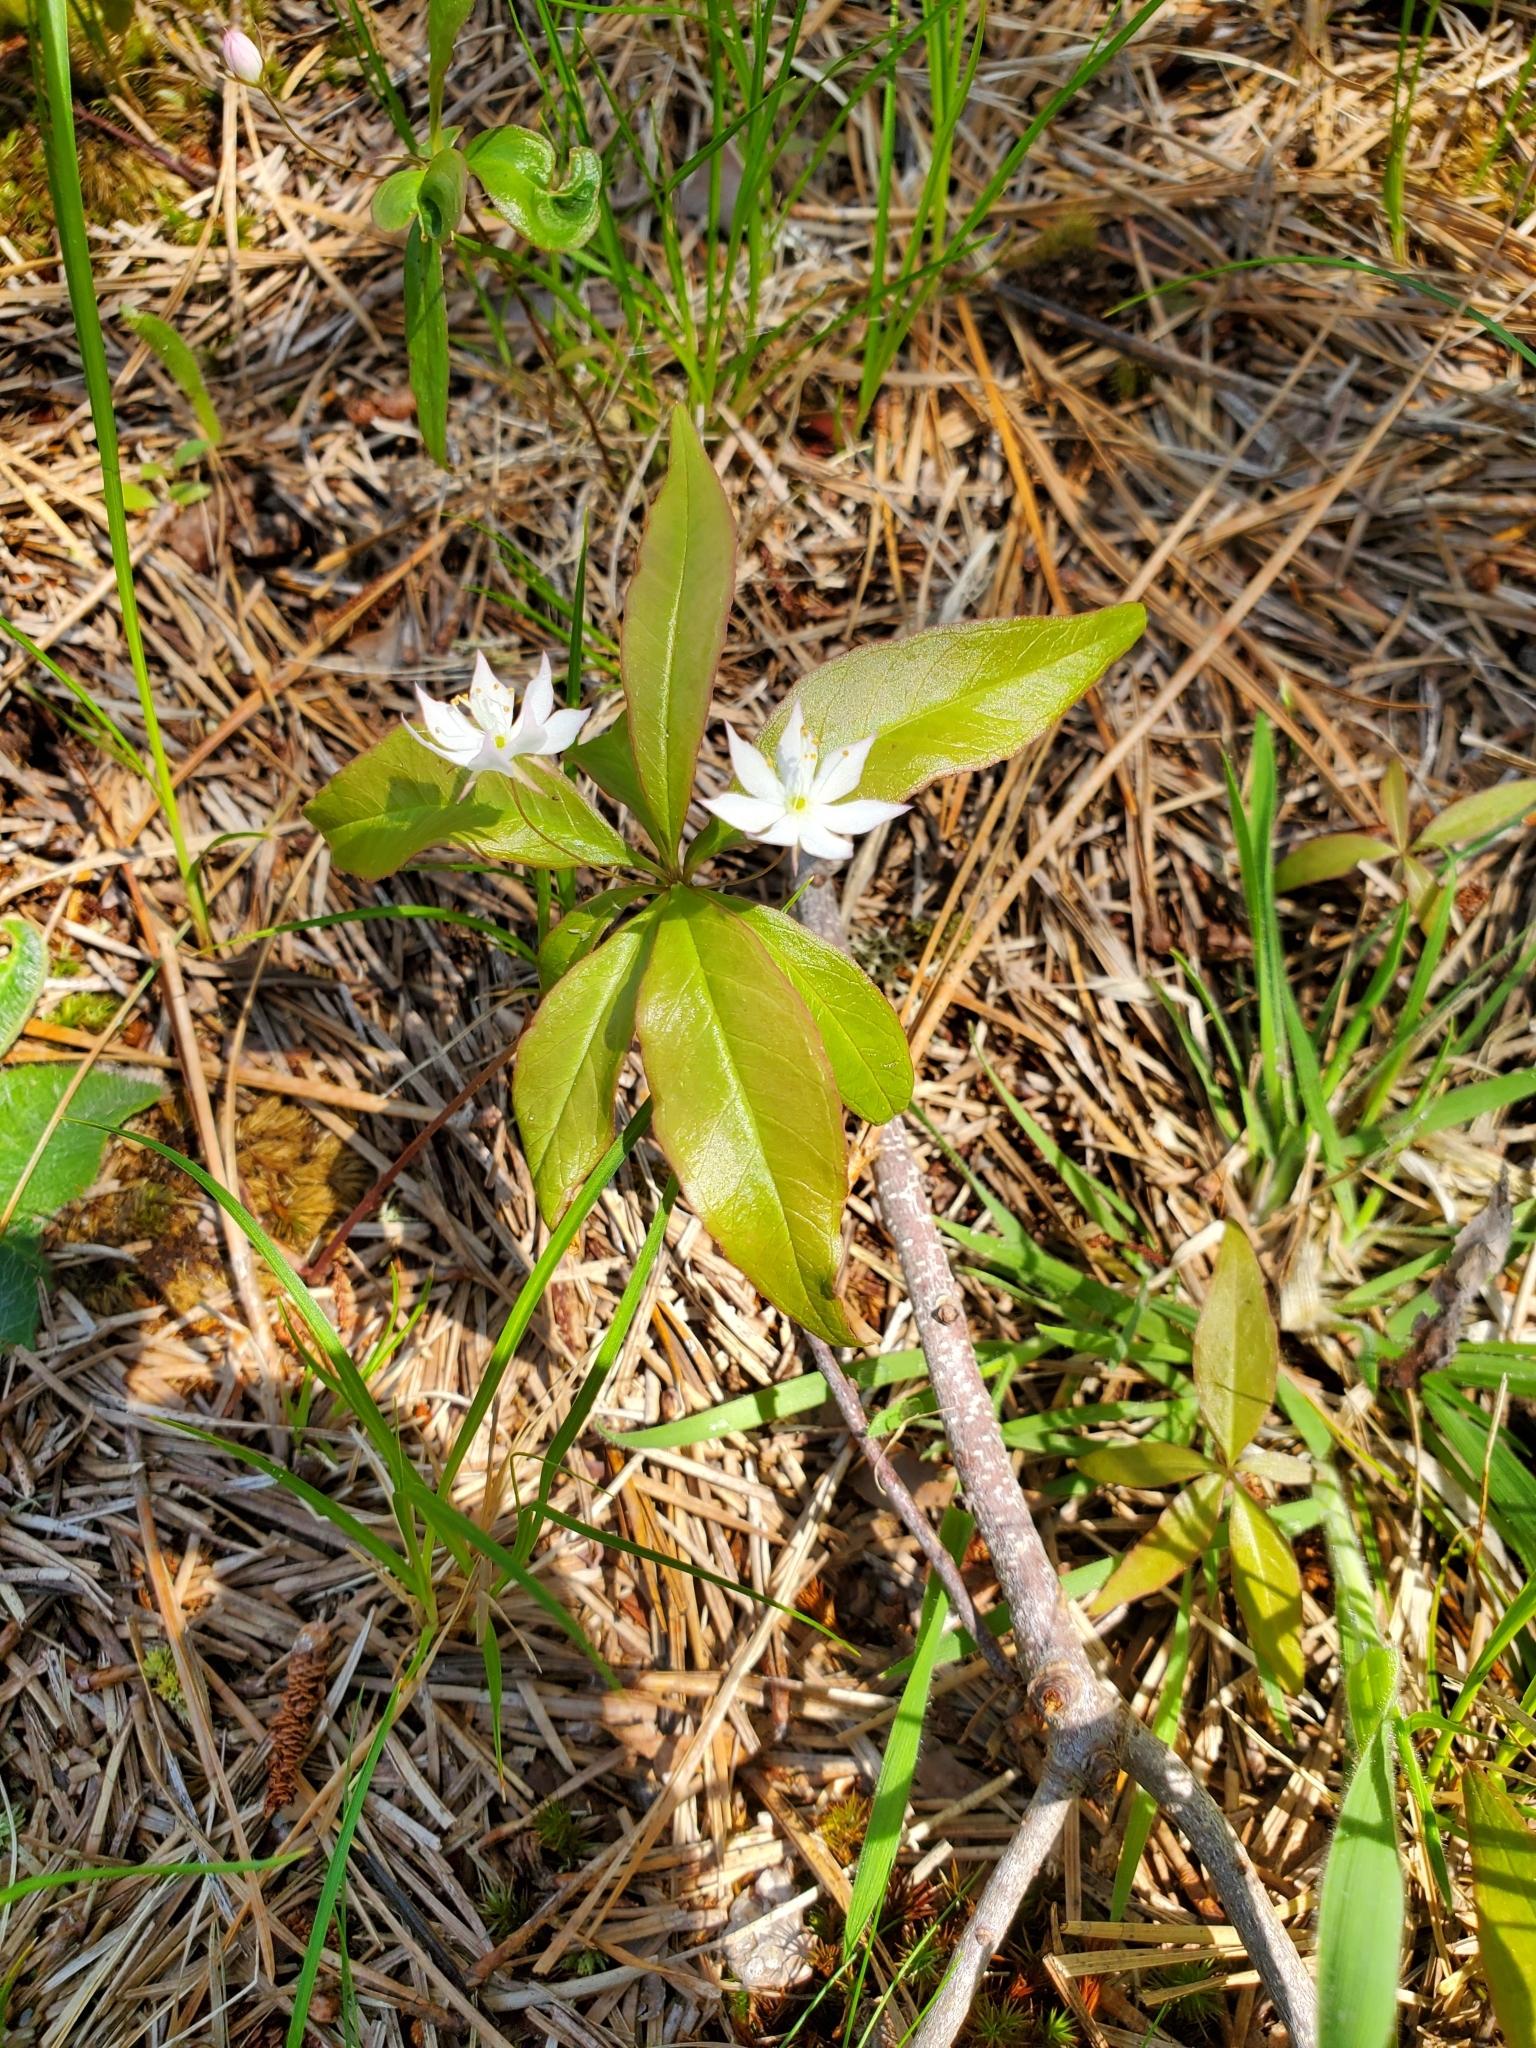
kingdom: Plantae
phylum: Tracheophyta
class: Magnoliopsida
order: Ericales
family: Primulaceae
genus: Lysimachia
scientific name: Lysimachia borealis
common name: American starflower
